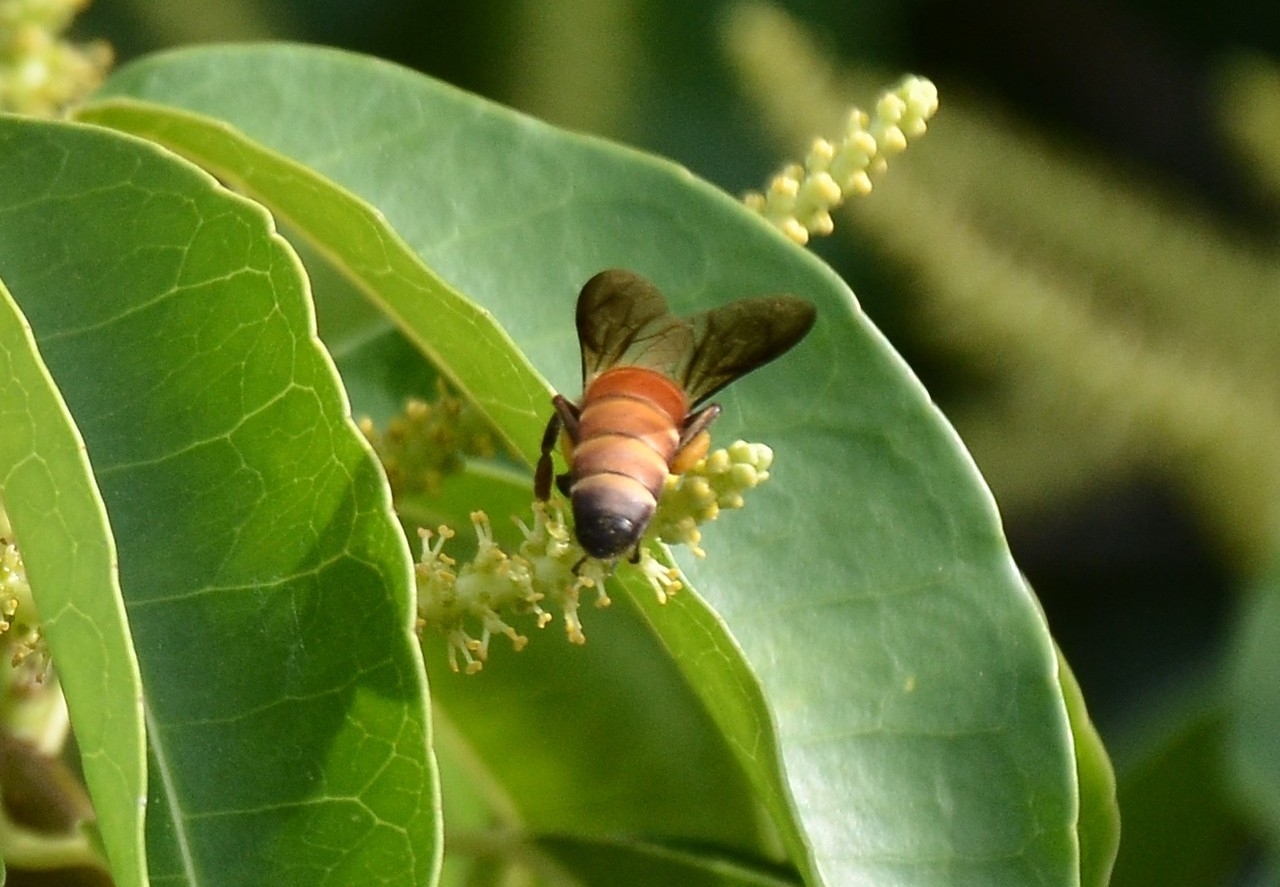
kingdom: Animalia
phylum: Arthropoda
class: Insecta
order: Hymenoptera
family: Apidae
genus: Apis
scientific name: Apis dorsata
